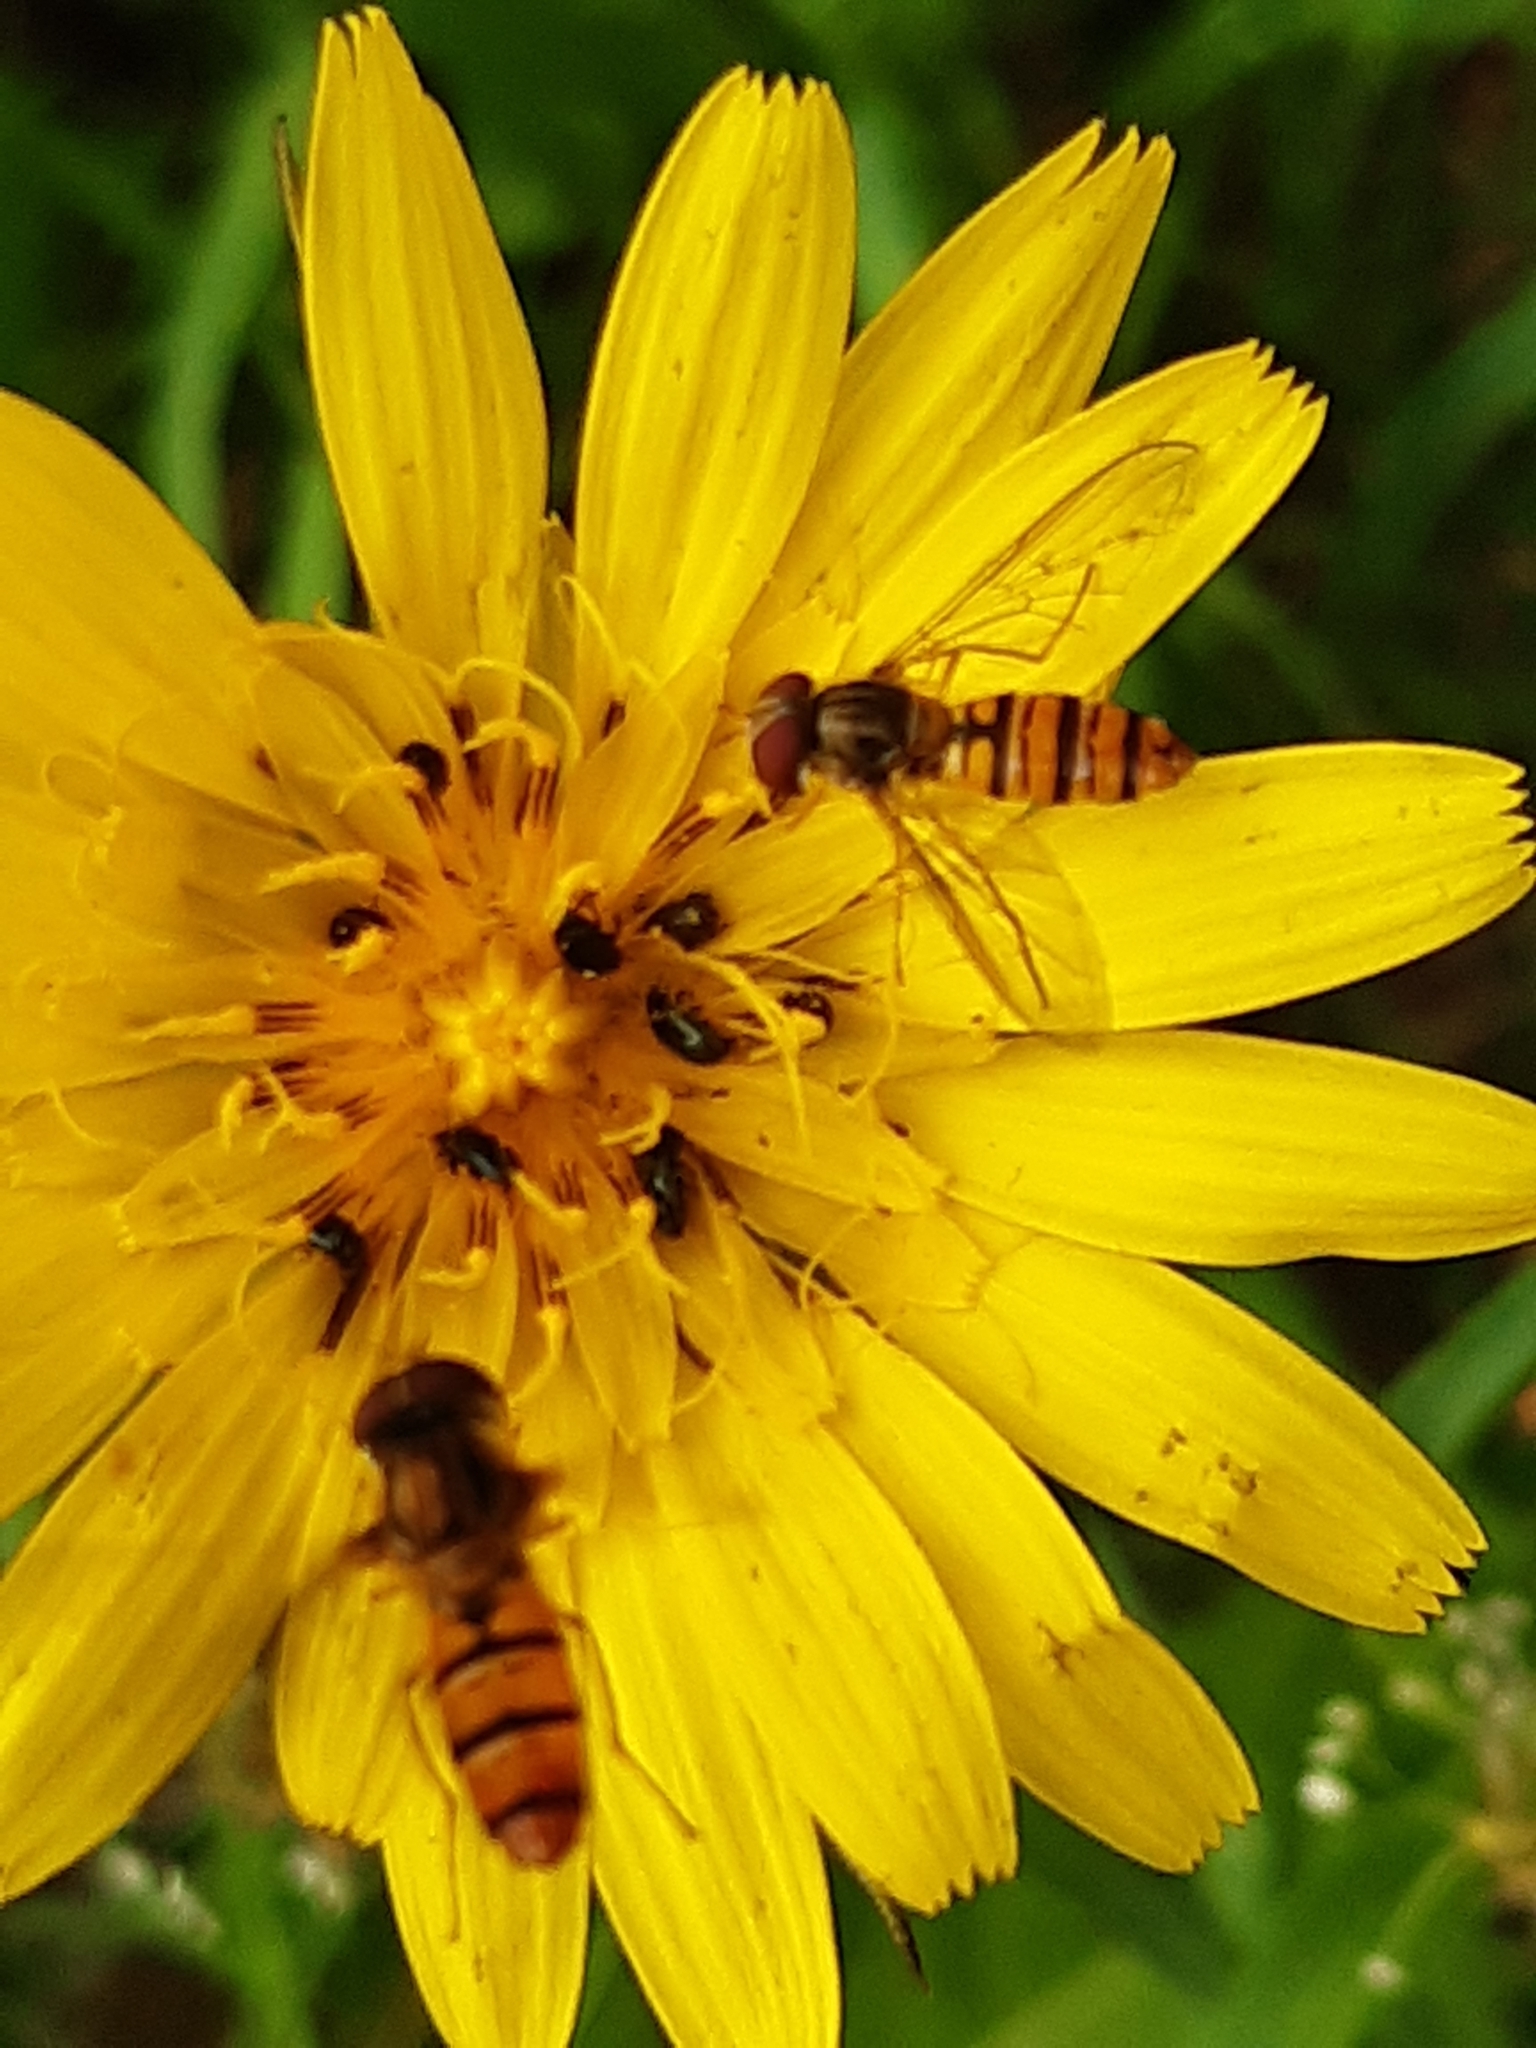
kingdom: Animalia
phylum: Arthropoda
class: Insecta
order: Diptera
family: Syrphidae
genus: Episyrphus
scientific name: Episyrphus balteatus
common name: Marmalade hoverfly
